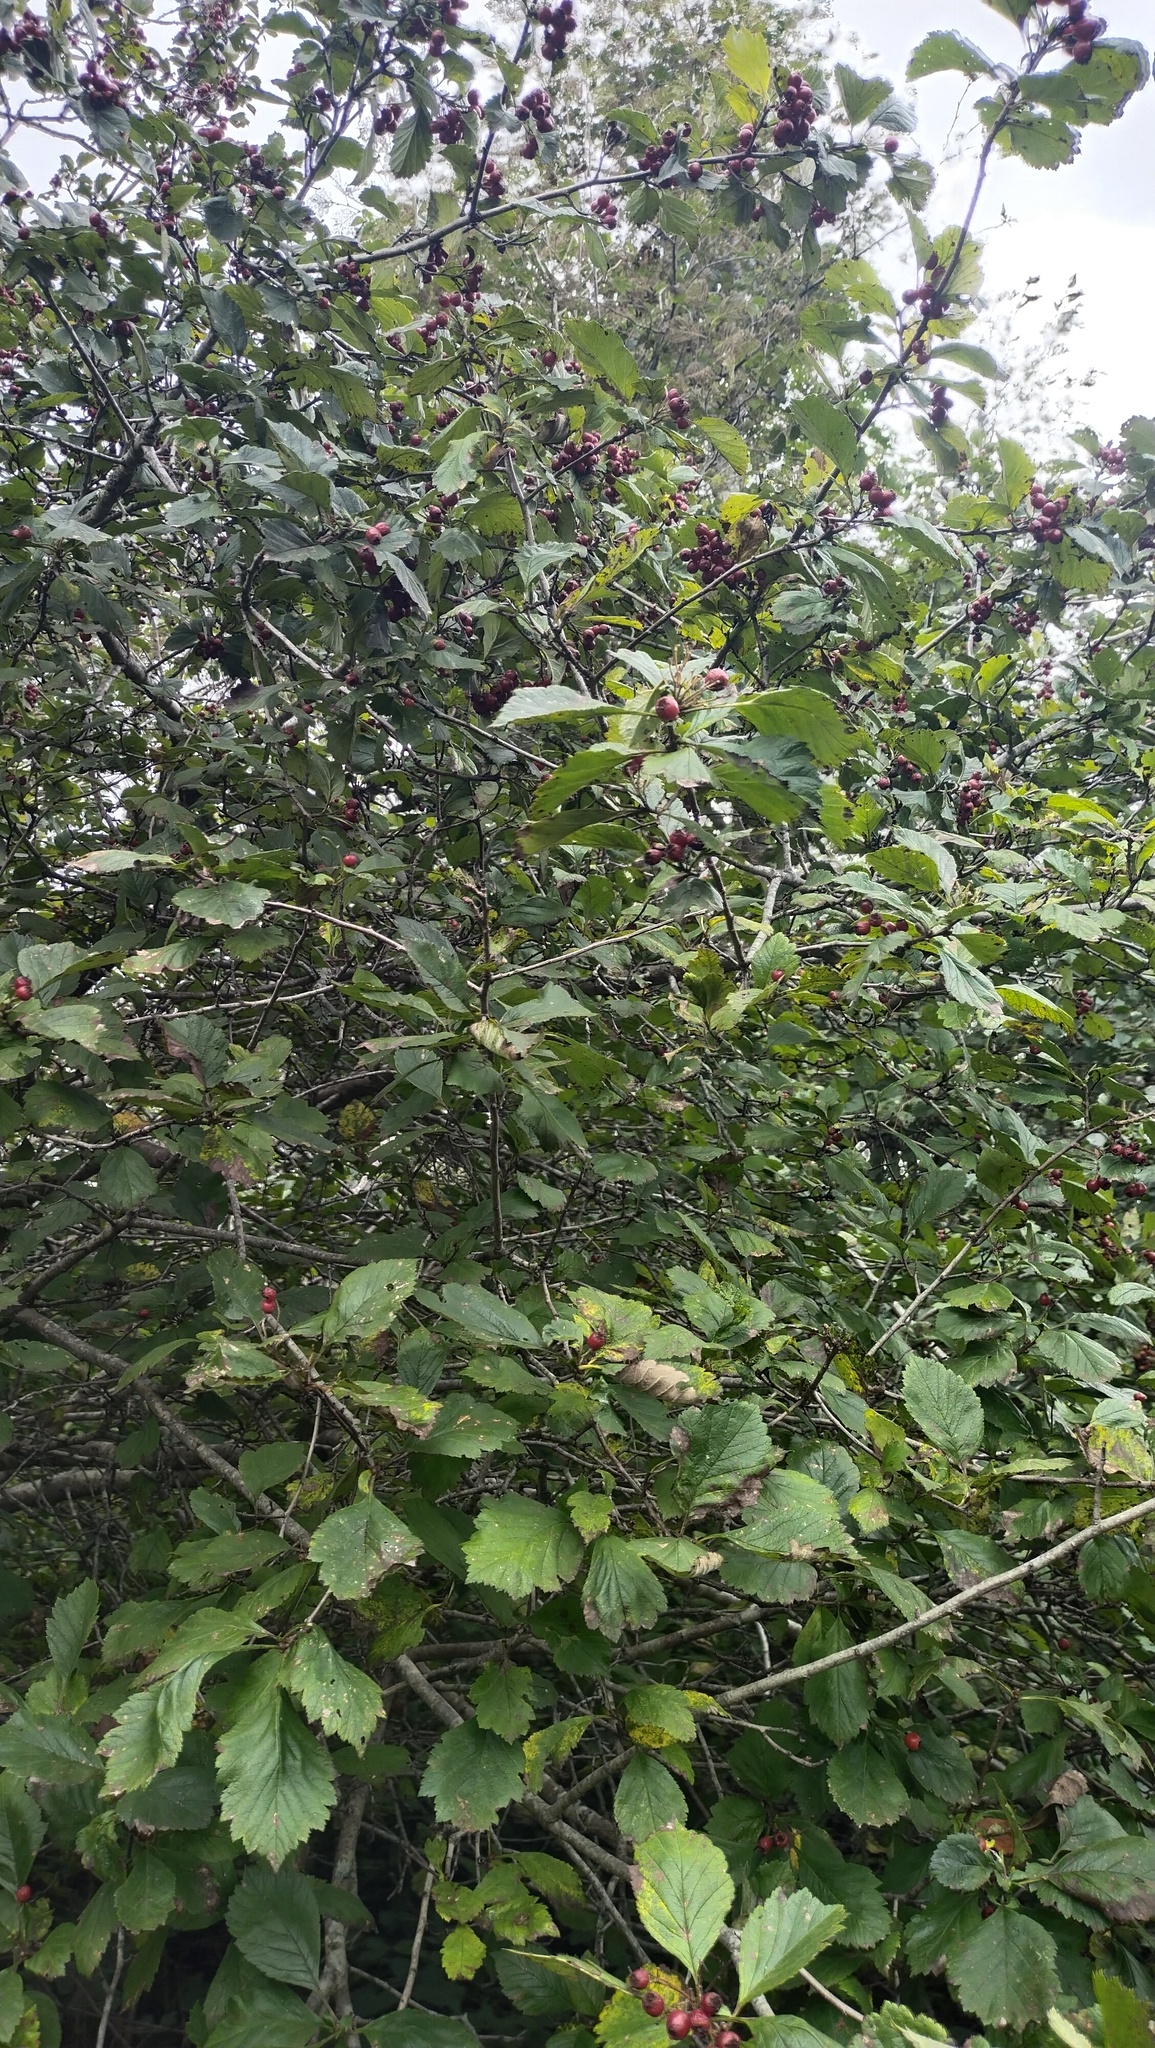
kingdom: Plantae
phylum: Tracheophyta
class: Magnoliopsida
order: Rosales
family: Rosaceae
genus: Crataegus
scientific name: Crataegus maximowiczii
